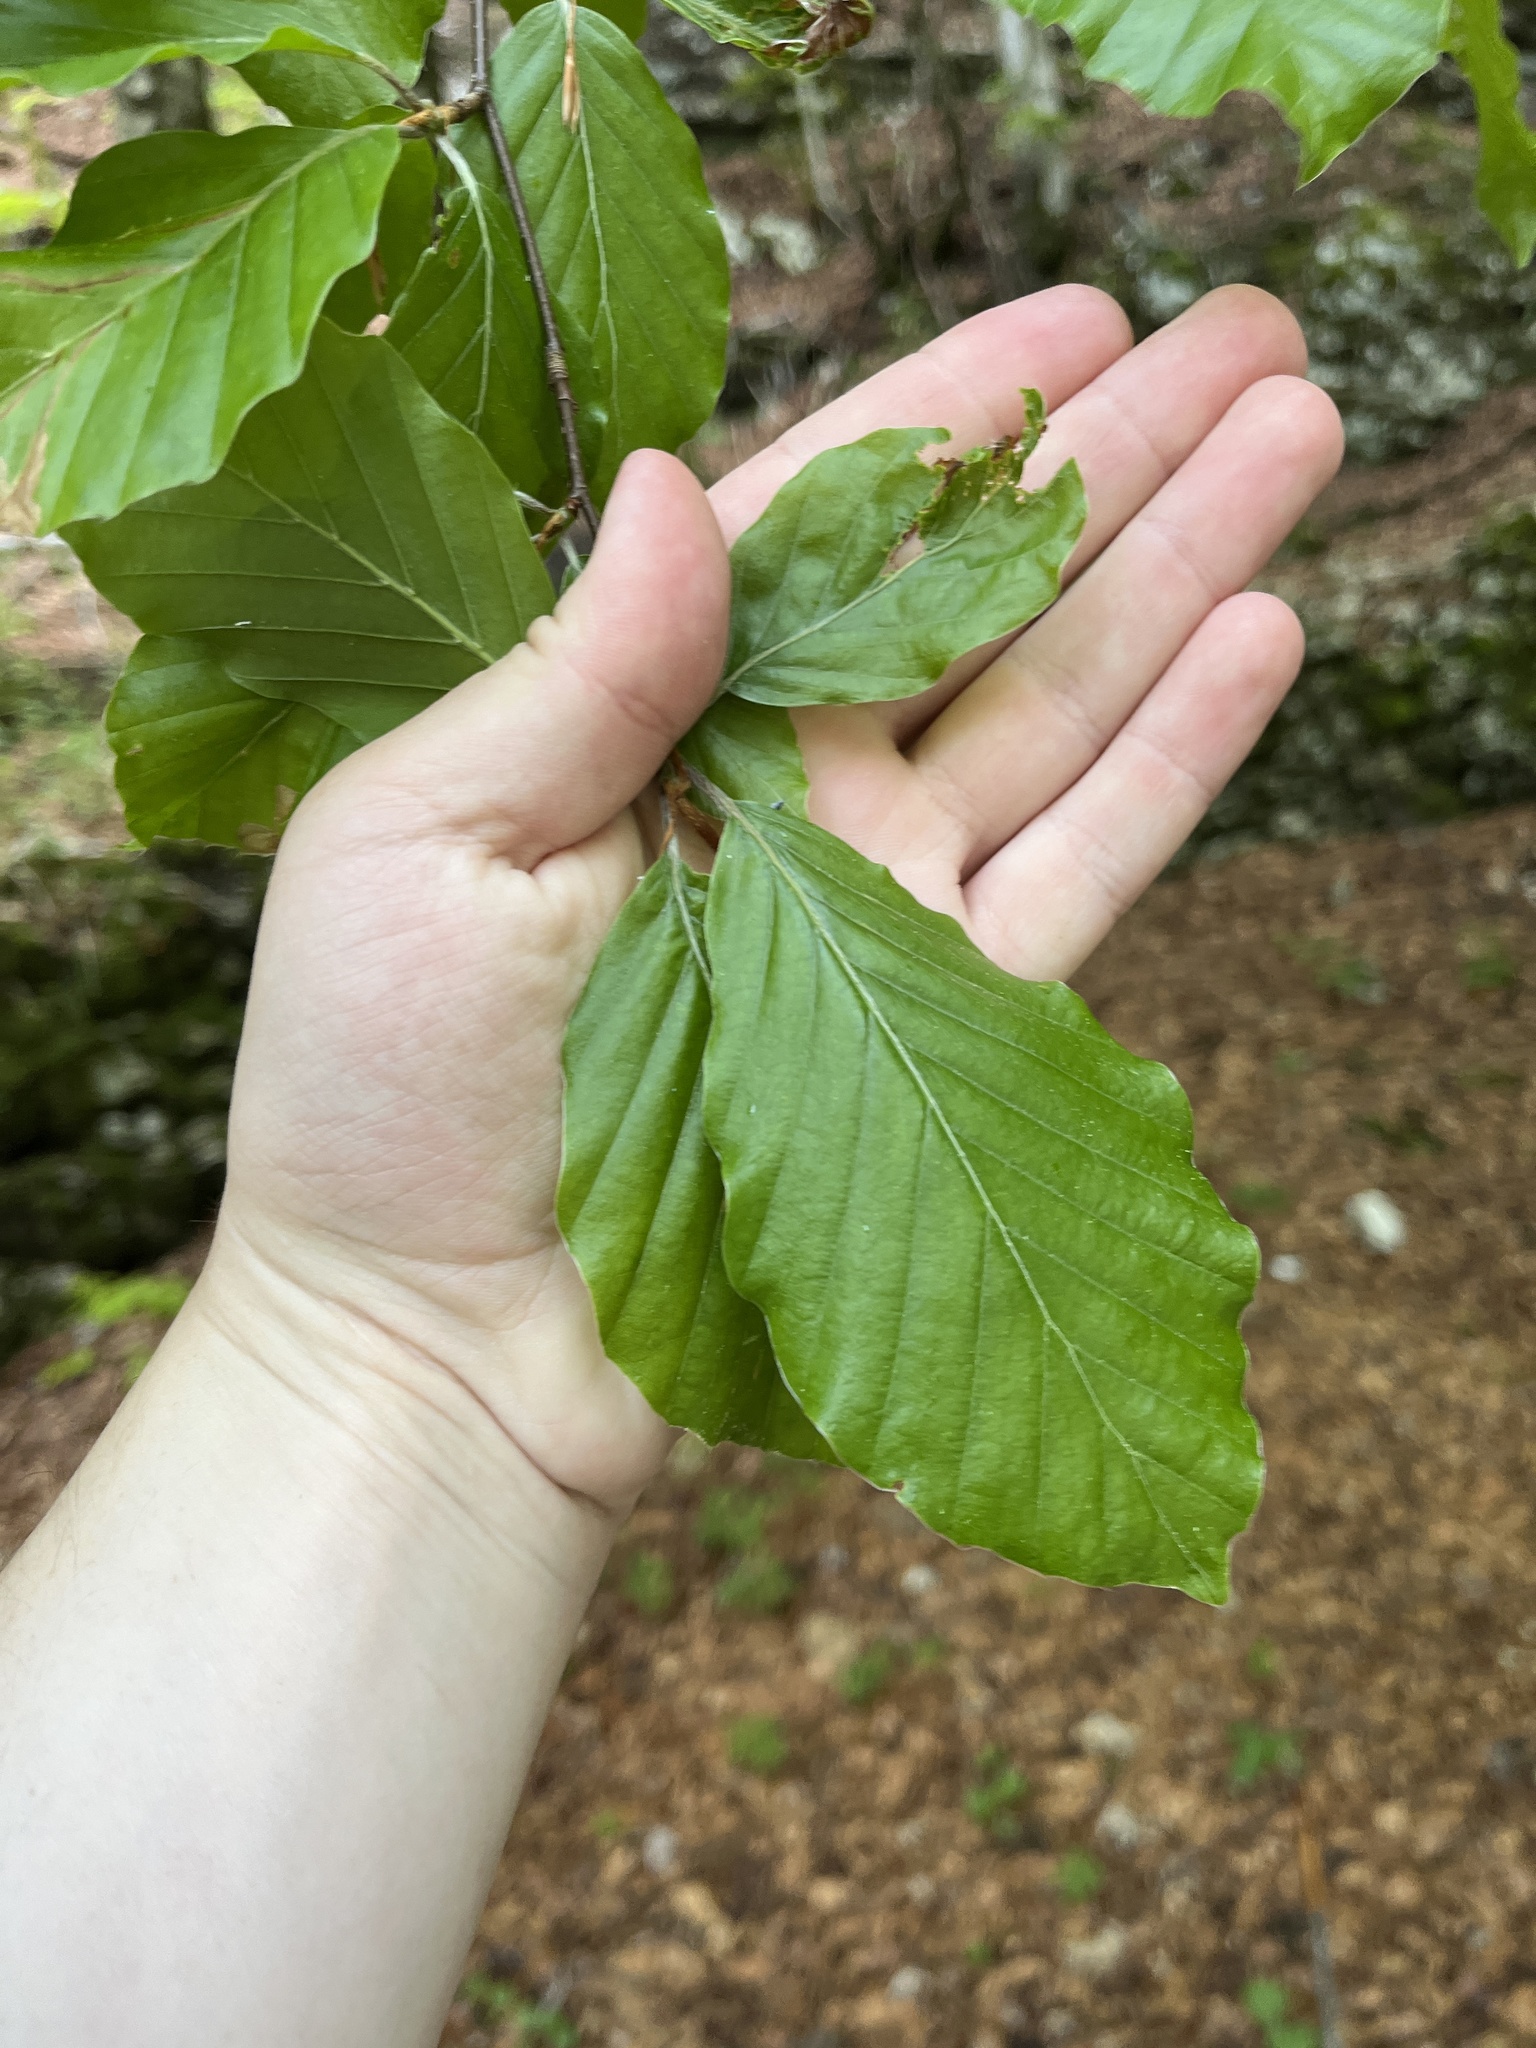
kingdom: Plantae
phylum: Tracheophyta
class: Magnoliopsida
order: Fagales
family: Fagaceae
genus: Fagus
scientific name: Fagus sylvatica
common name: Beech
